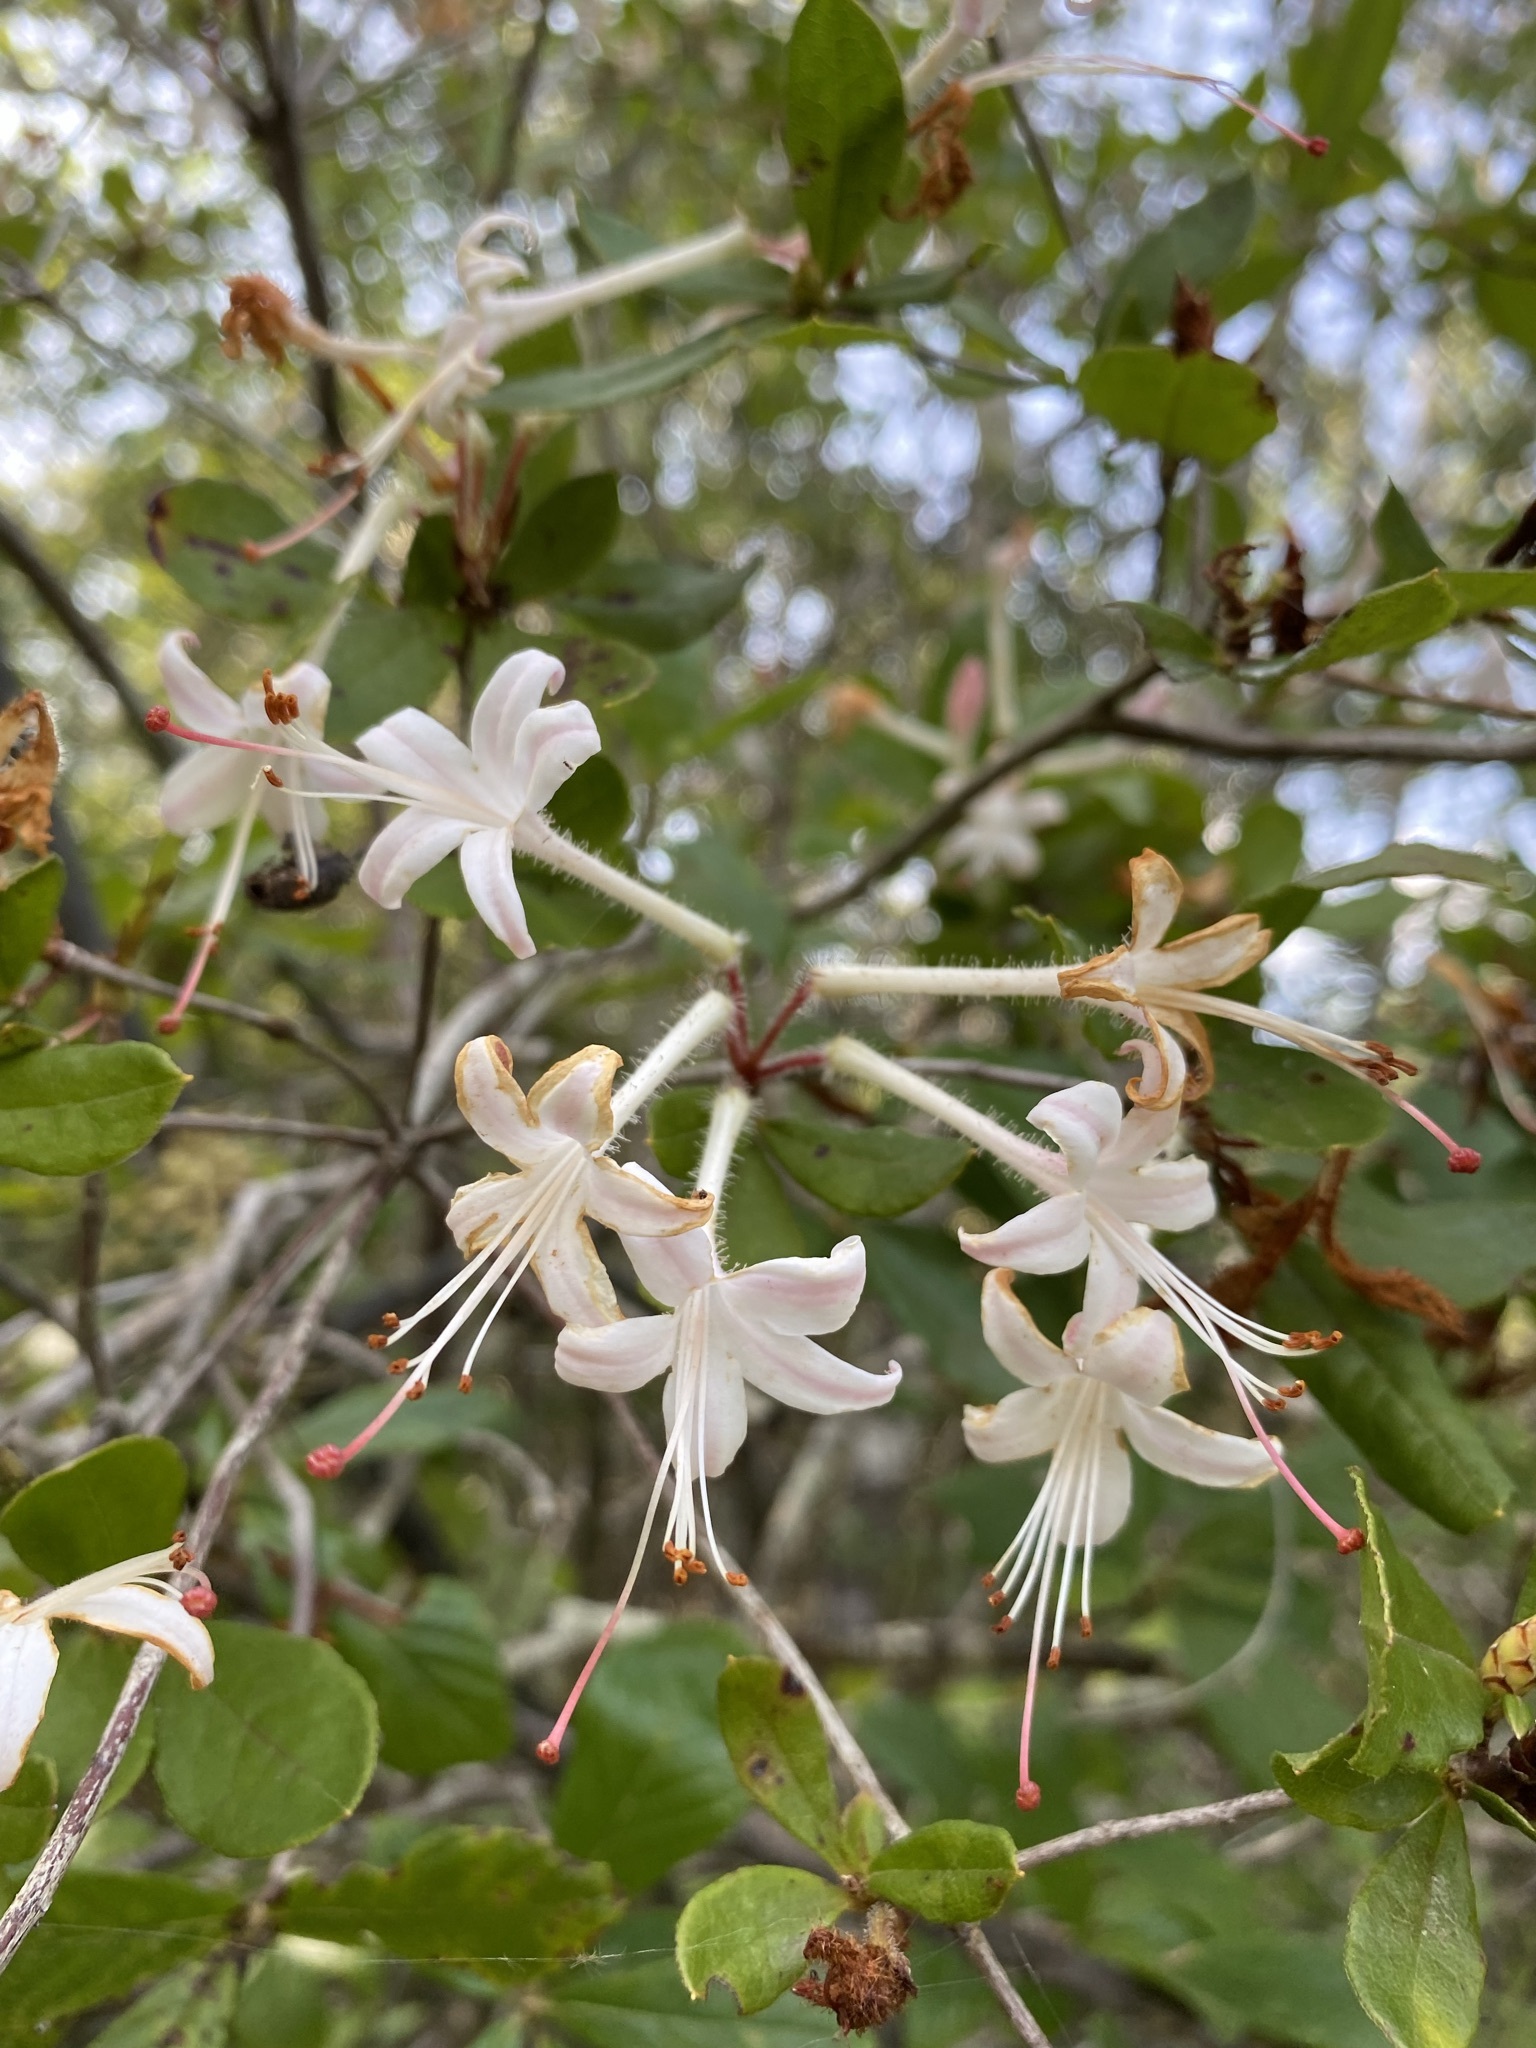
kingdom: Plantae
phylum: Tracheophyta
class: Magnoliopsida
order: Ericales
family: Ericaceae
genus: Rhododendron
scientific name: Rhododendron serrulatum
